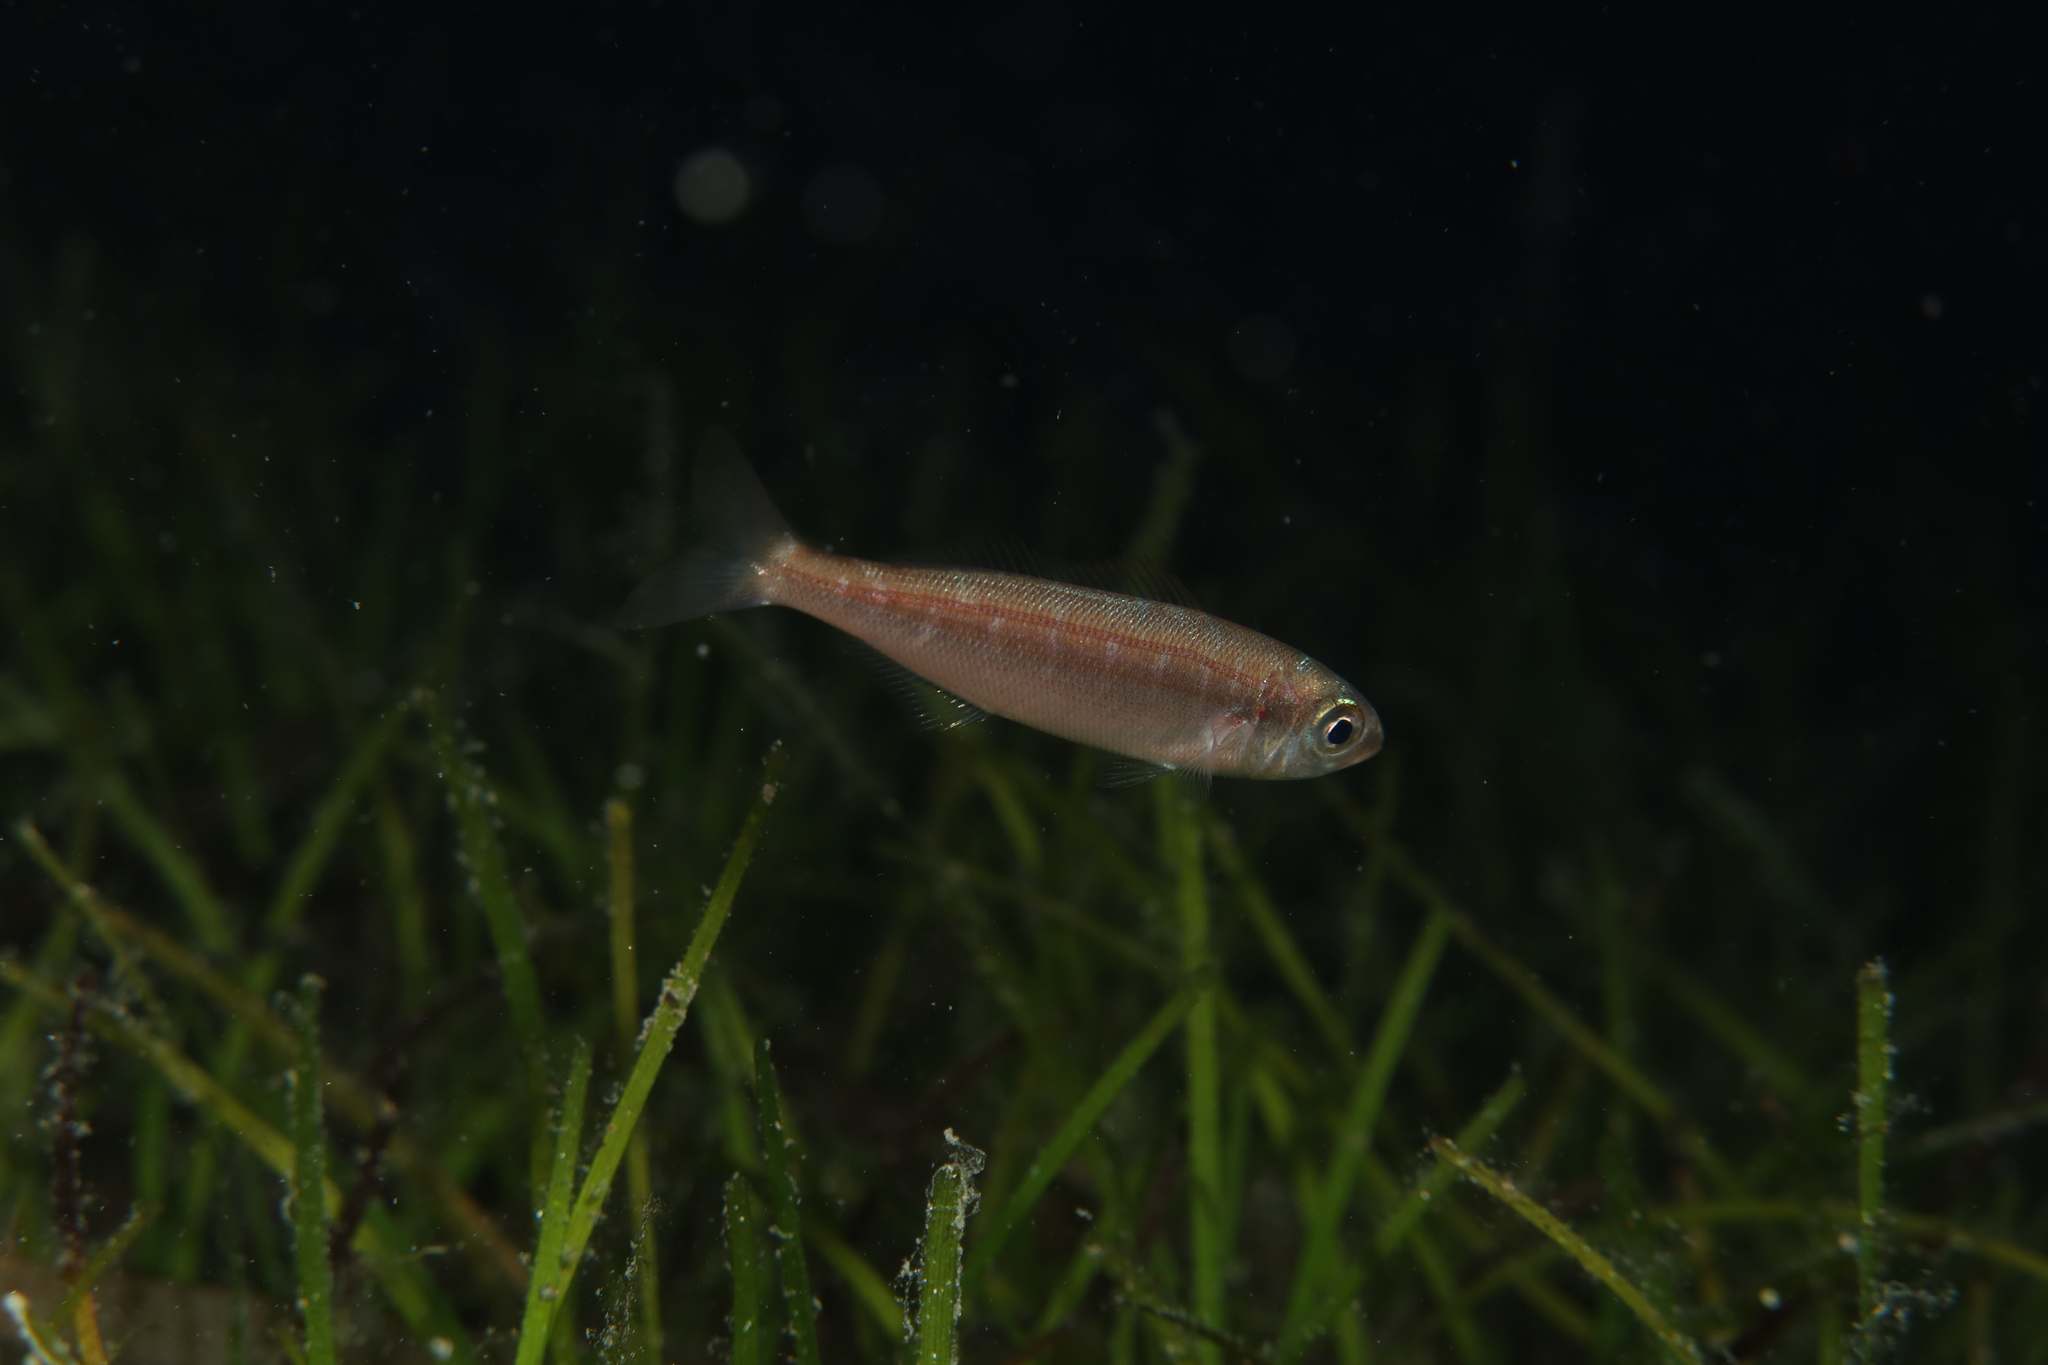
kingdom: Animalia
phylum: Chordata
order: Perciformes
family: Sparidae
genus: Boops
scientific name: Boops boops
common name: Bogue
